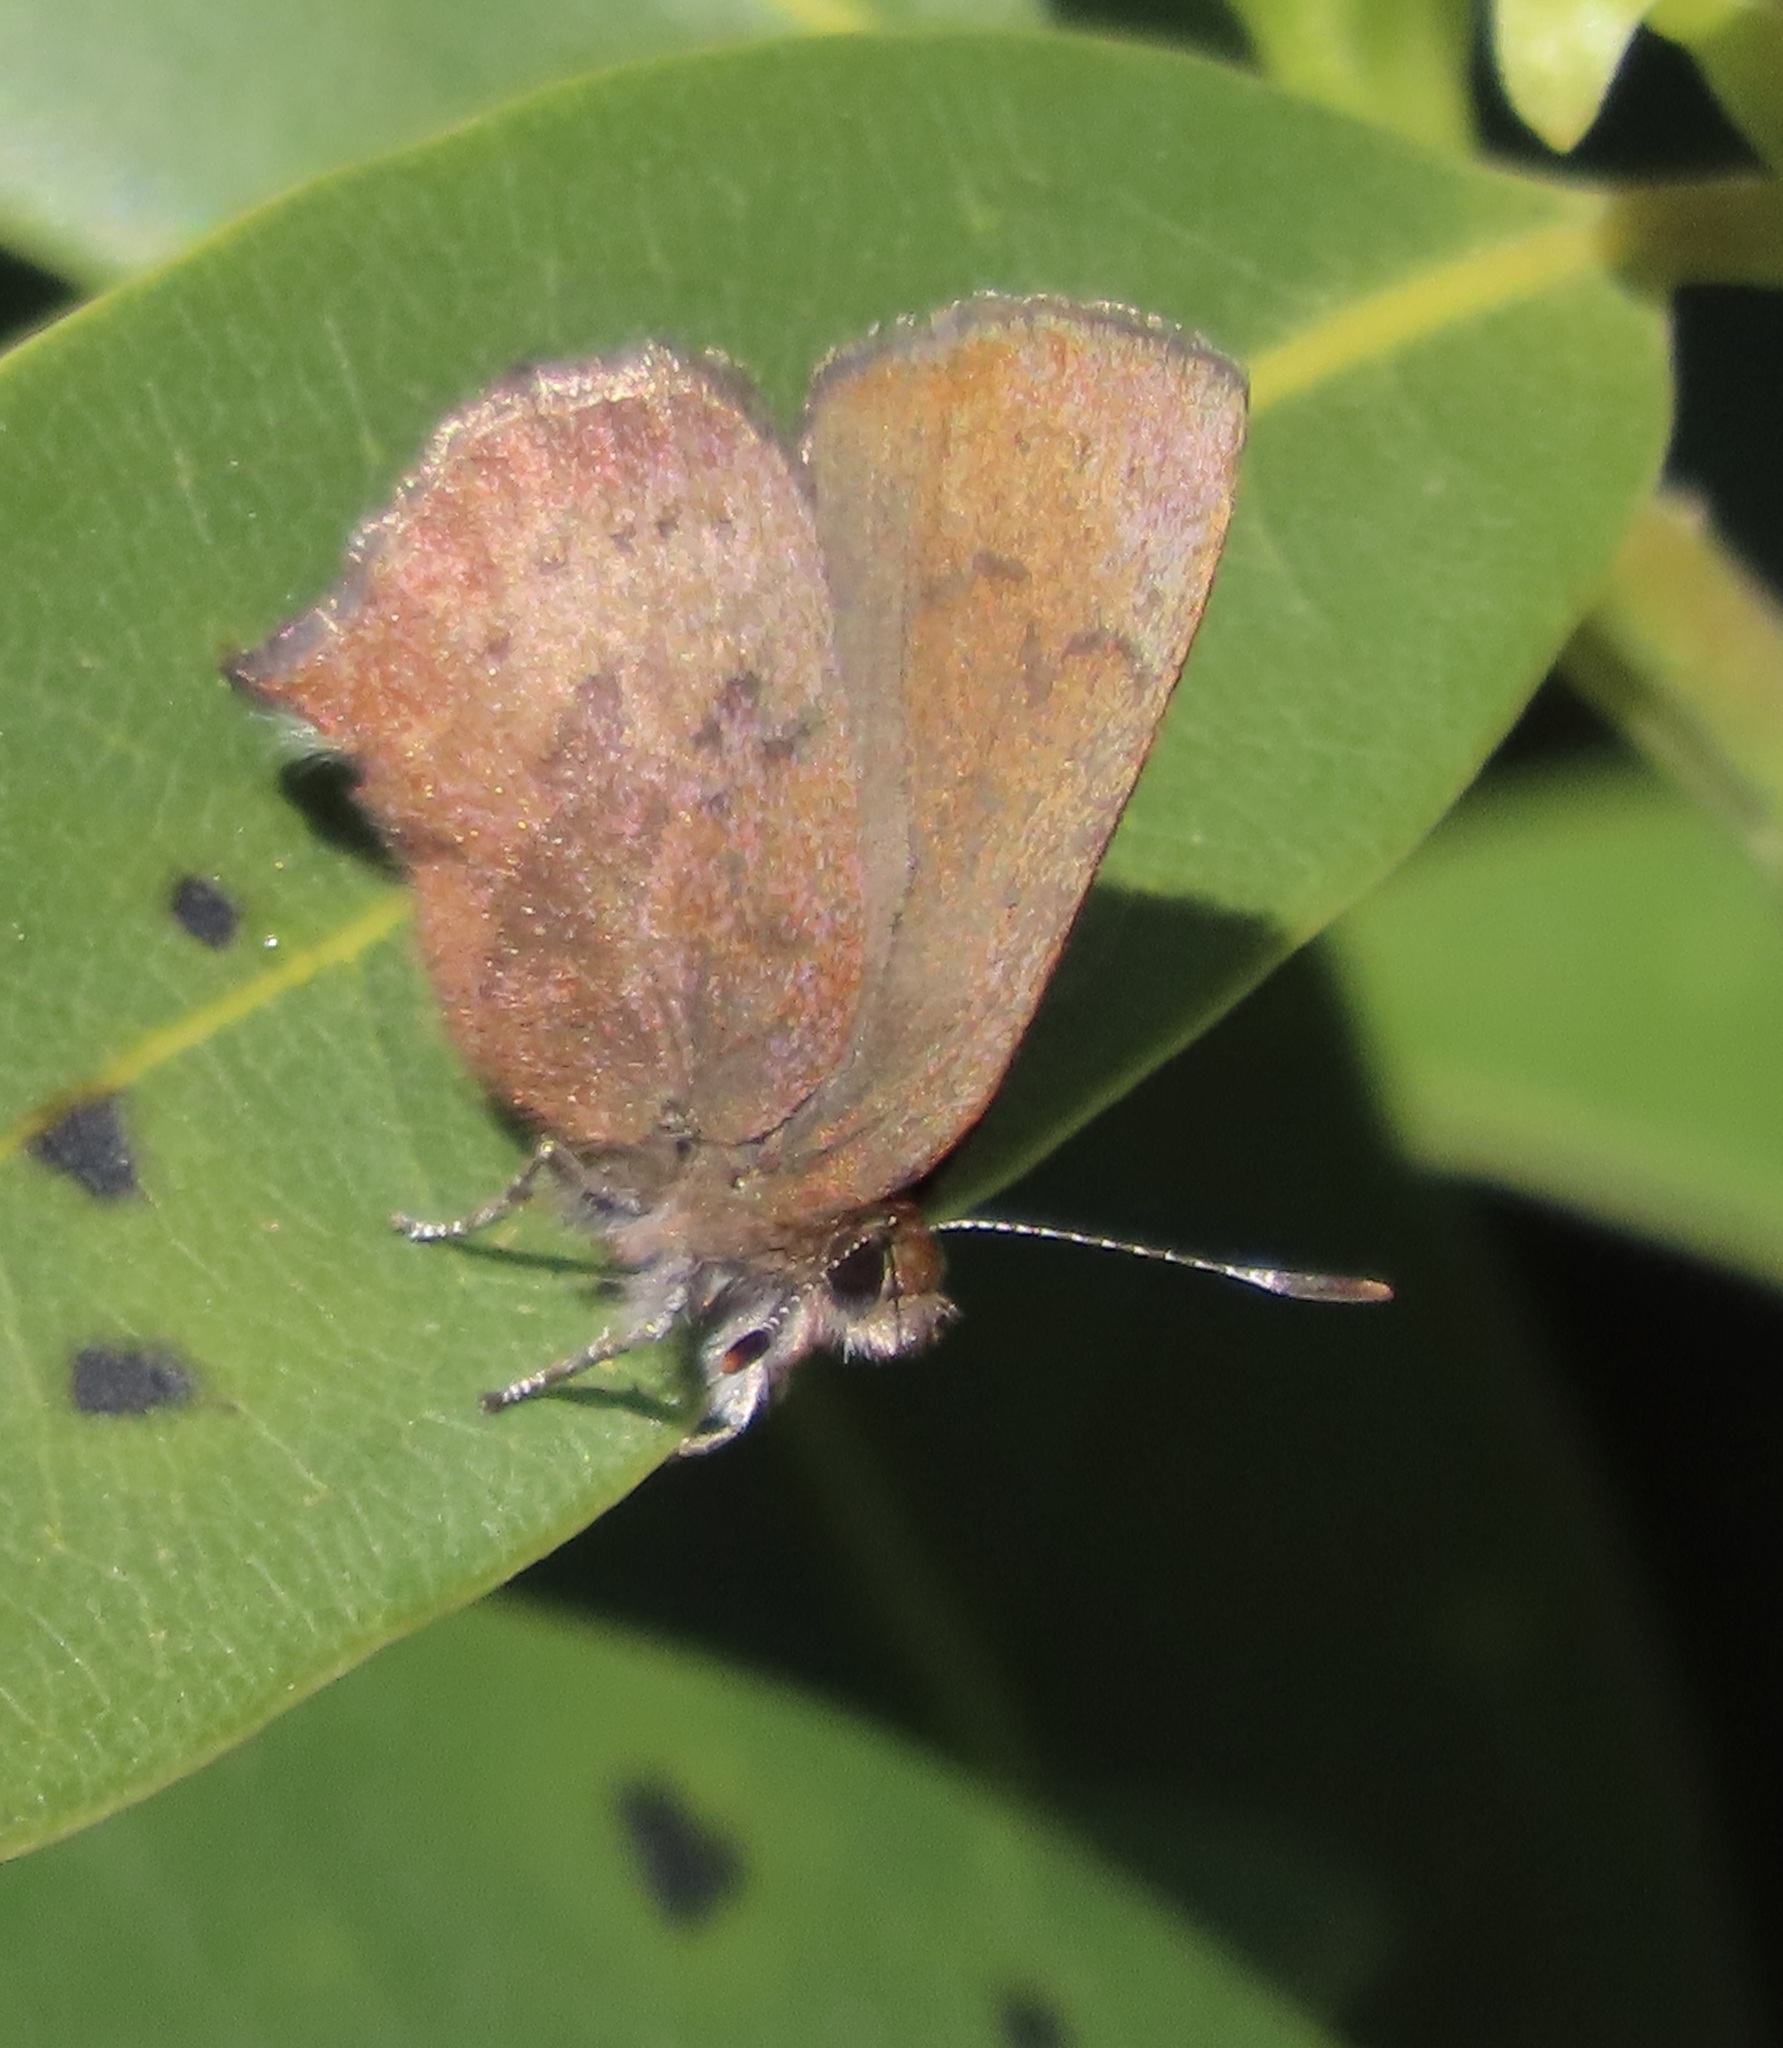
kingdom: Animalia
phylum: Arthropoda
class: Insecta
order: Lepidoptera
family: Lycaenidae
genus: Incisalia
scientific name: Incisalia irioides
